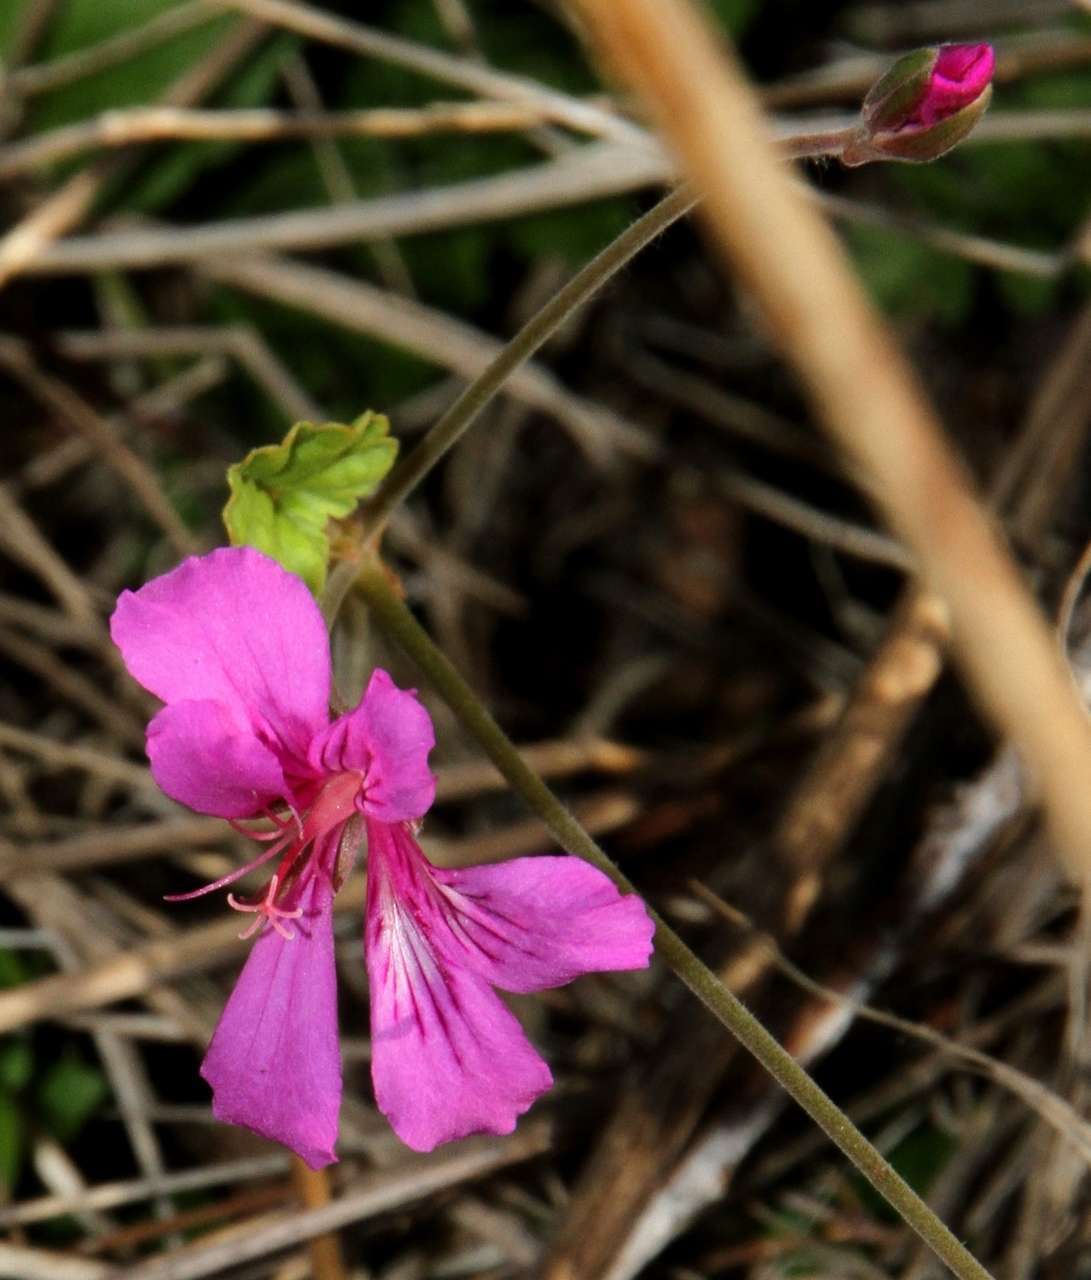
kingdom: Plantae
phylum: Tracheophyta
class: Magnoliopsida
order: Geraniales
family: Geraniaceae
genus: Pelargonium
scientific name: Pelargonium rodneyanum
